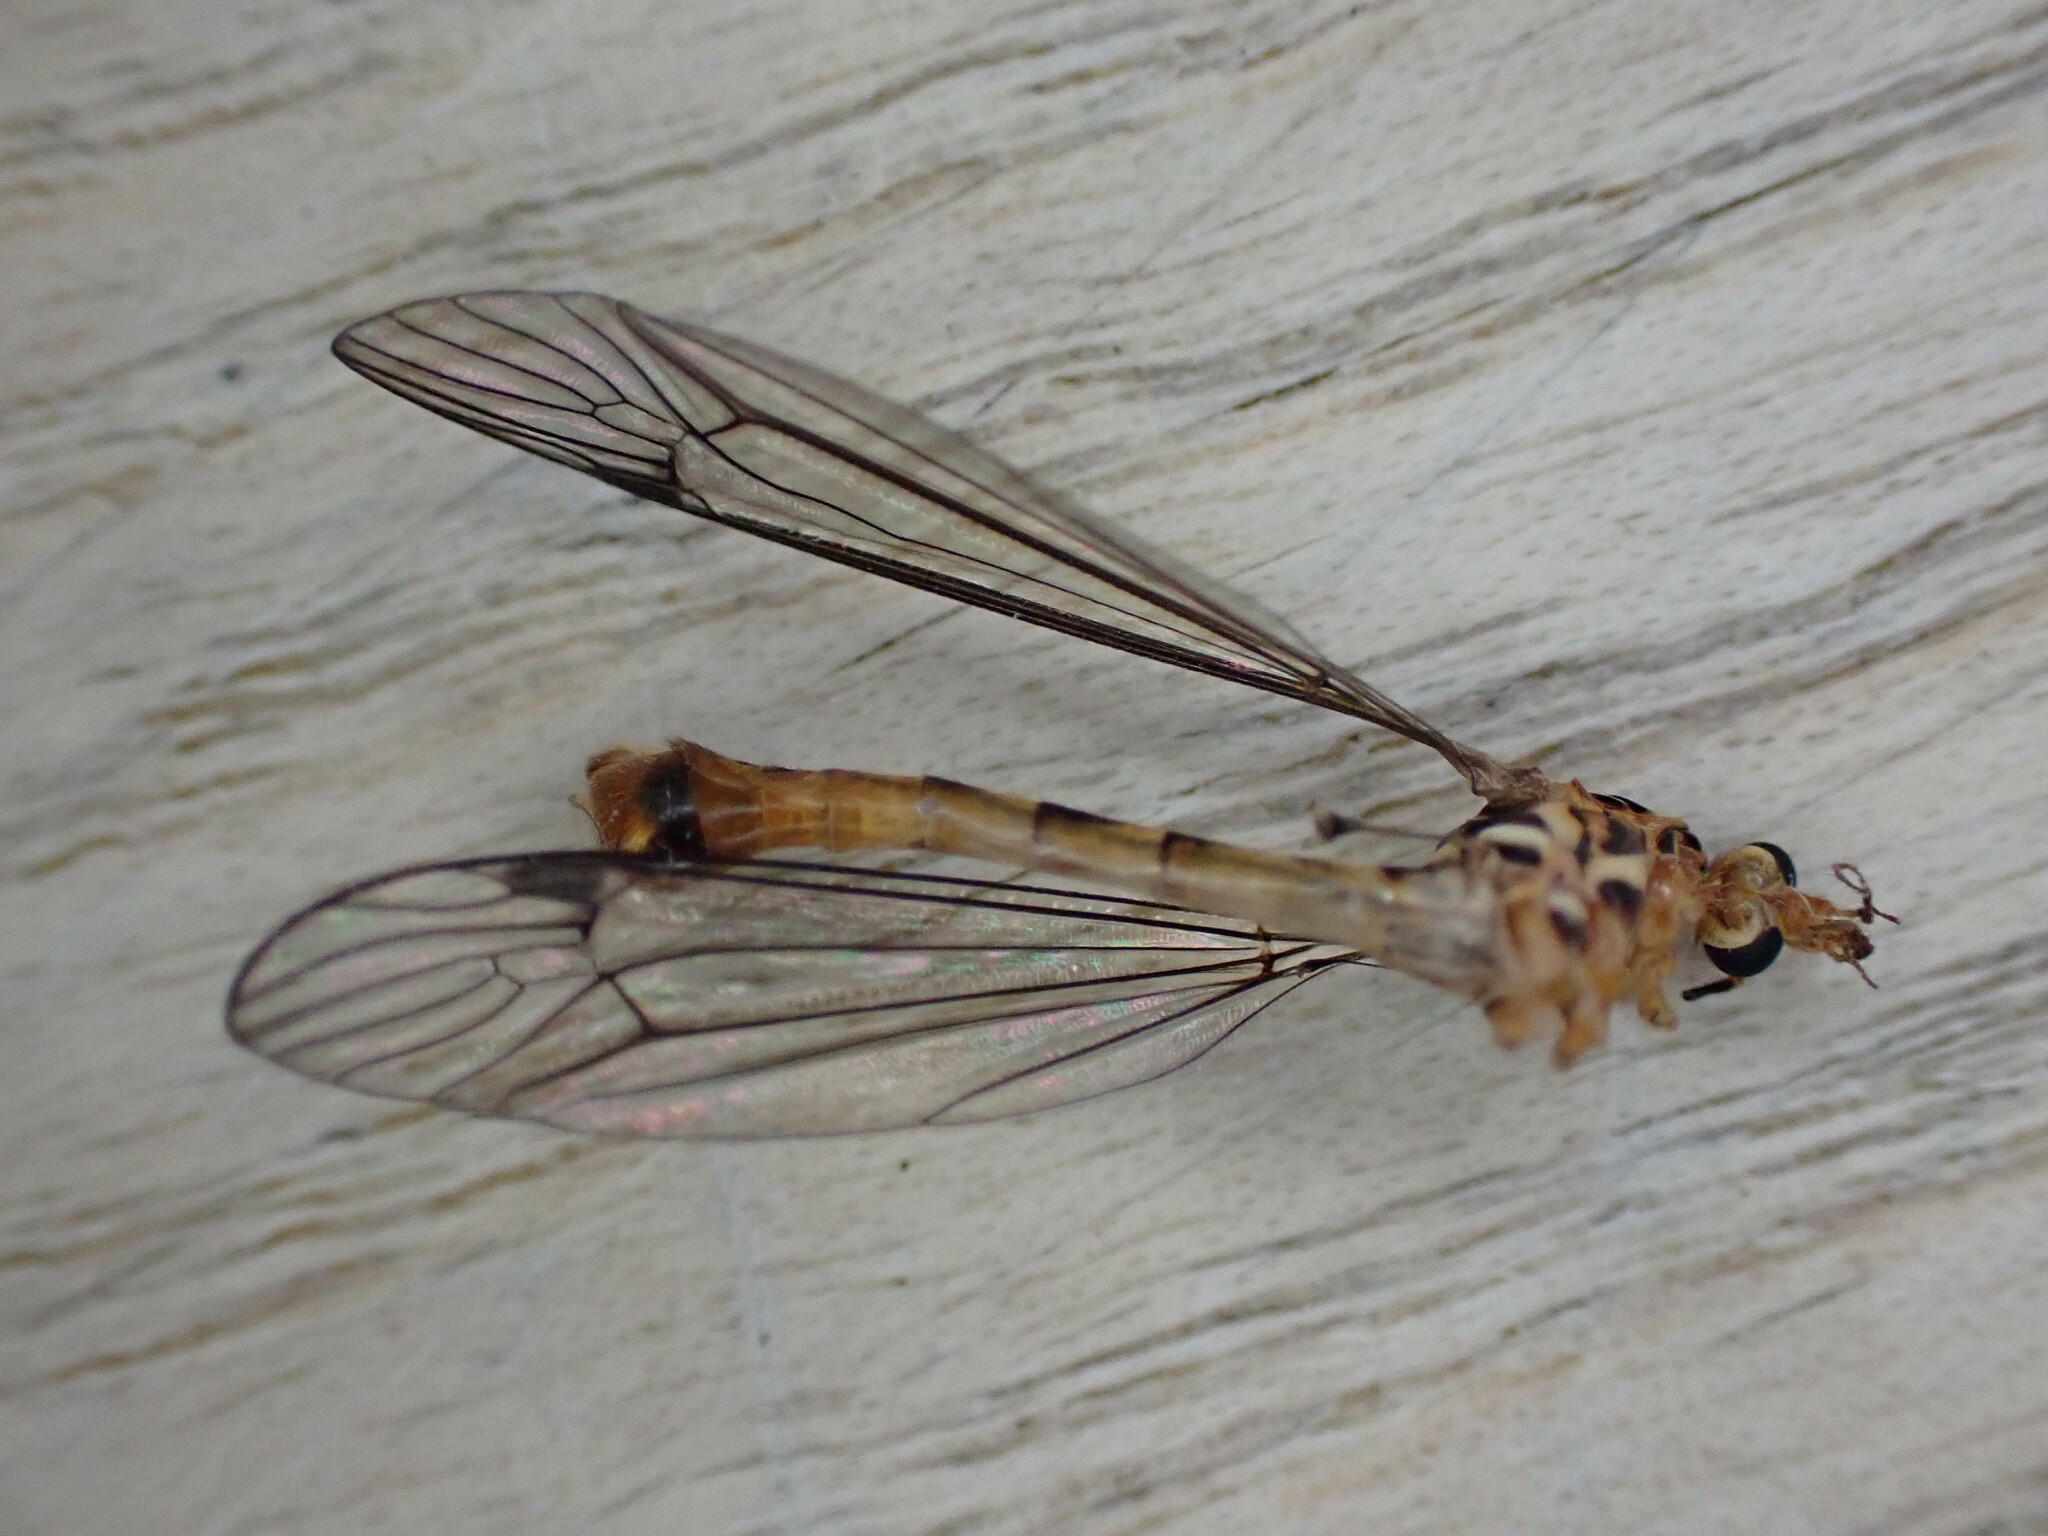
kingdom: Animalia
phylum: Arthropoda
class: Insecta
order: Diptera
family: Tipulidae
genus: Nephrotoma
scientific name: Nephrotoma flavipalpis
